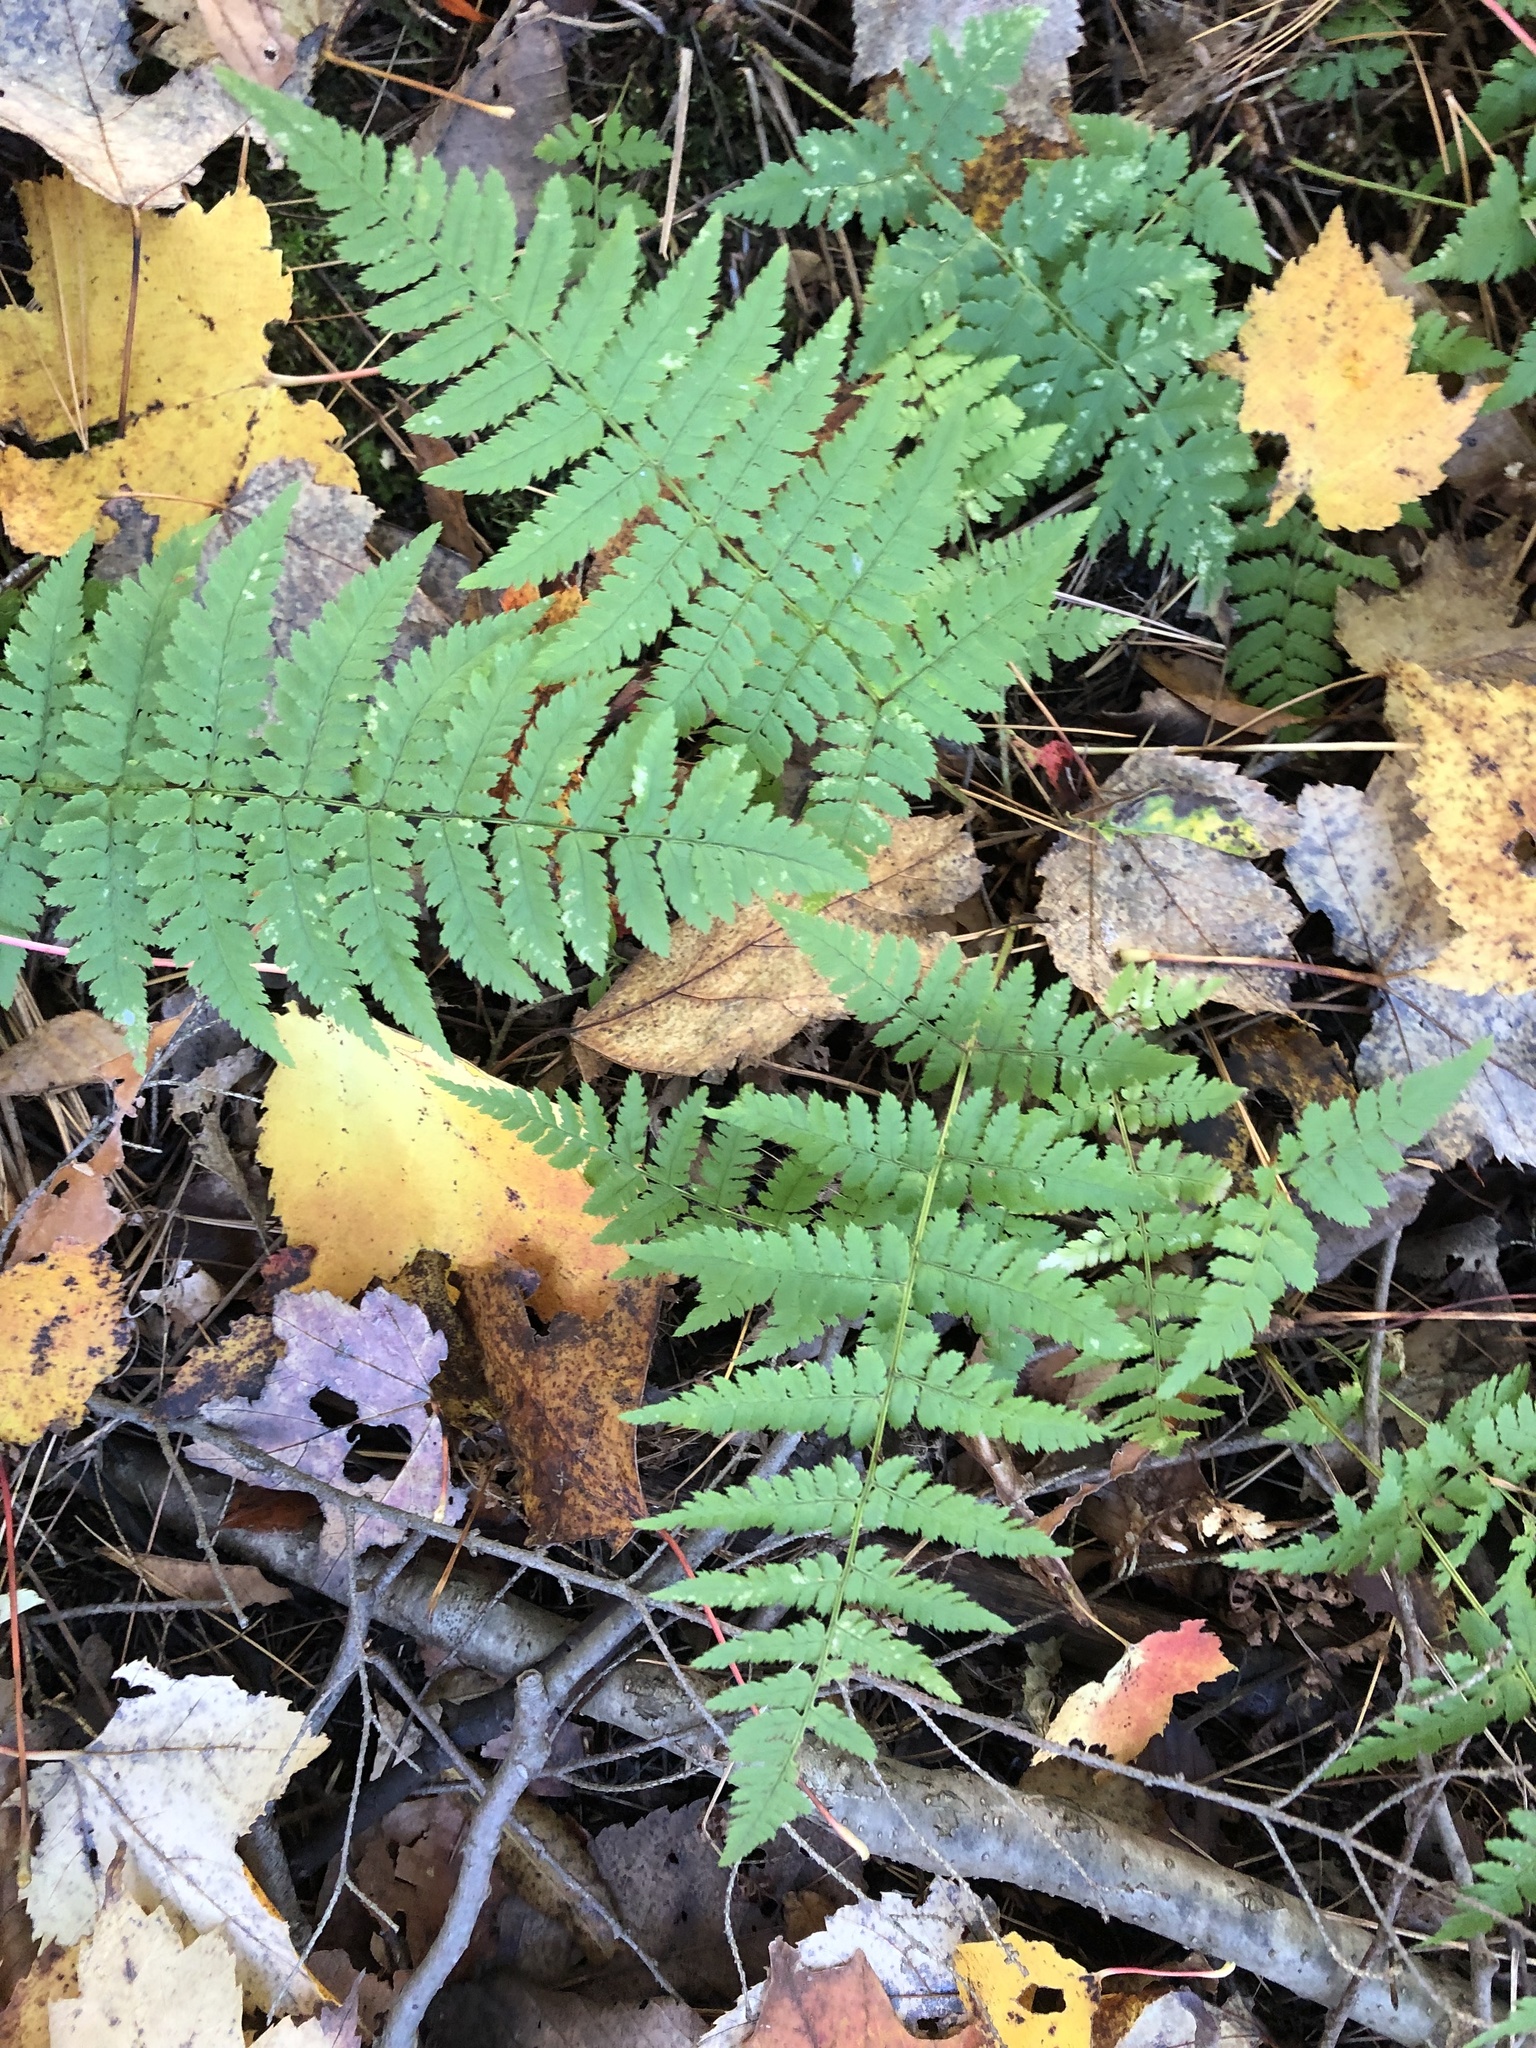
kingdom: Plantae
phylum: Tracheophyta
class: Polypodiopsida
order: Polypodiales
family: Dryopteridaceae
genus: Dryopteris
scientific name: Dryopteris intermedia
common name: Evergreen wood fern
